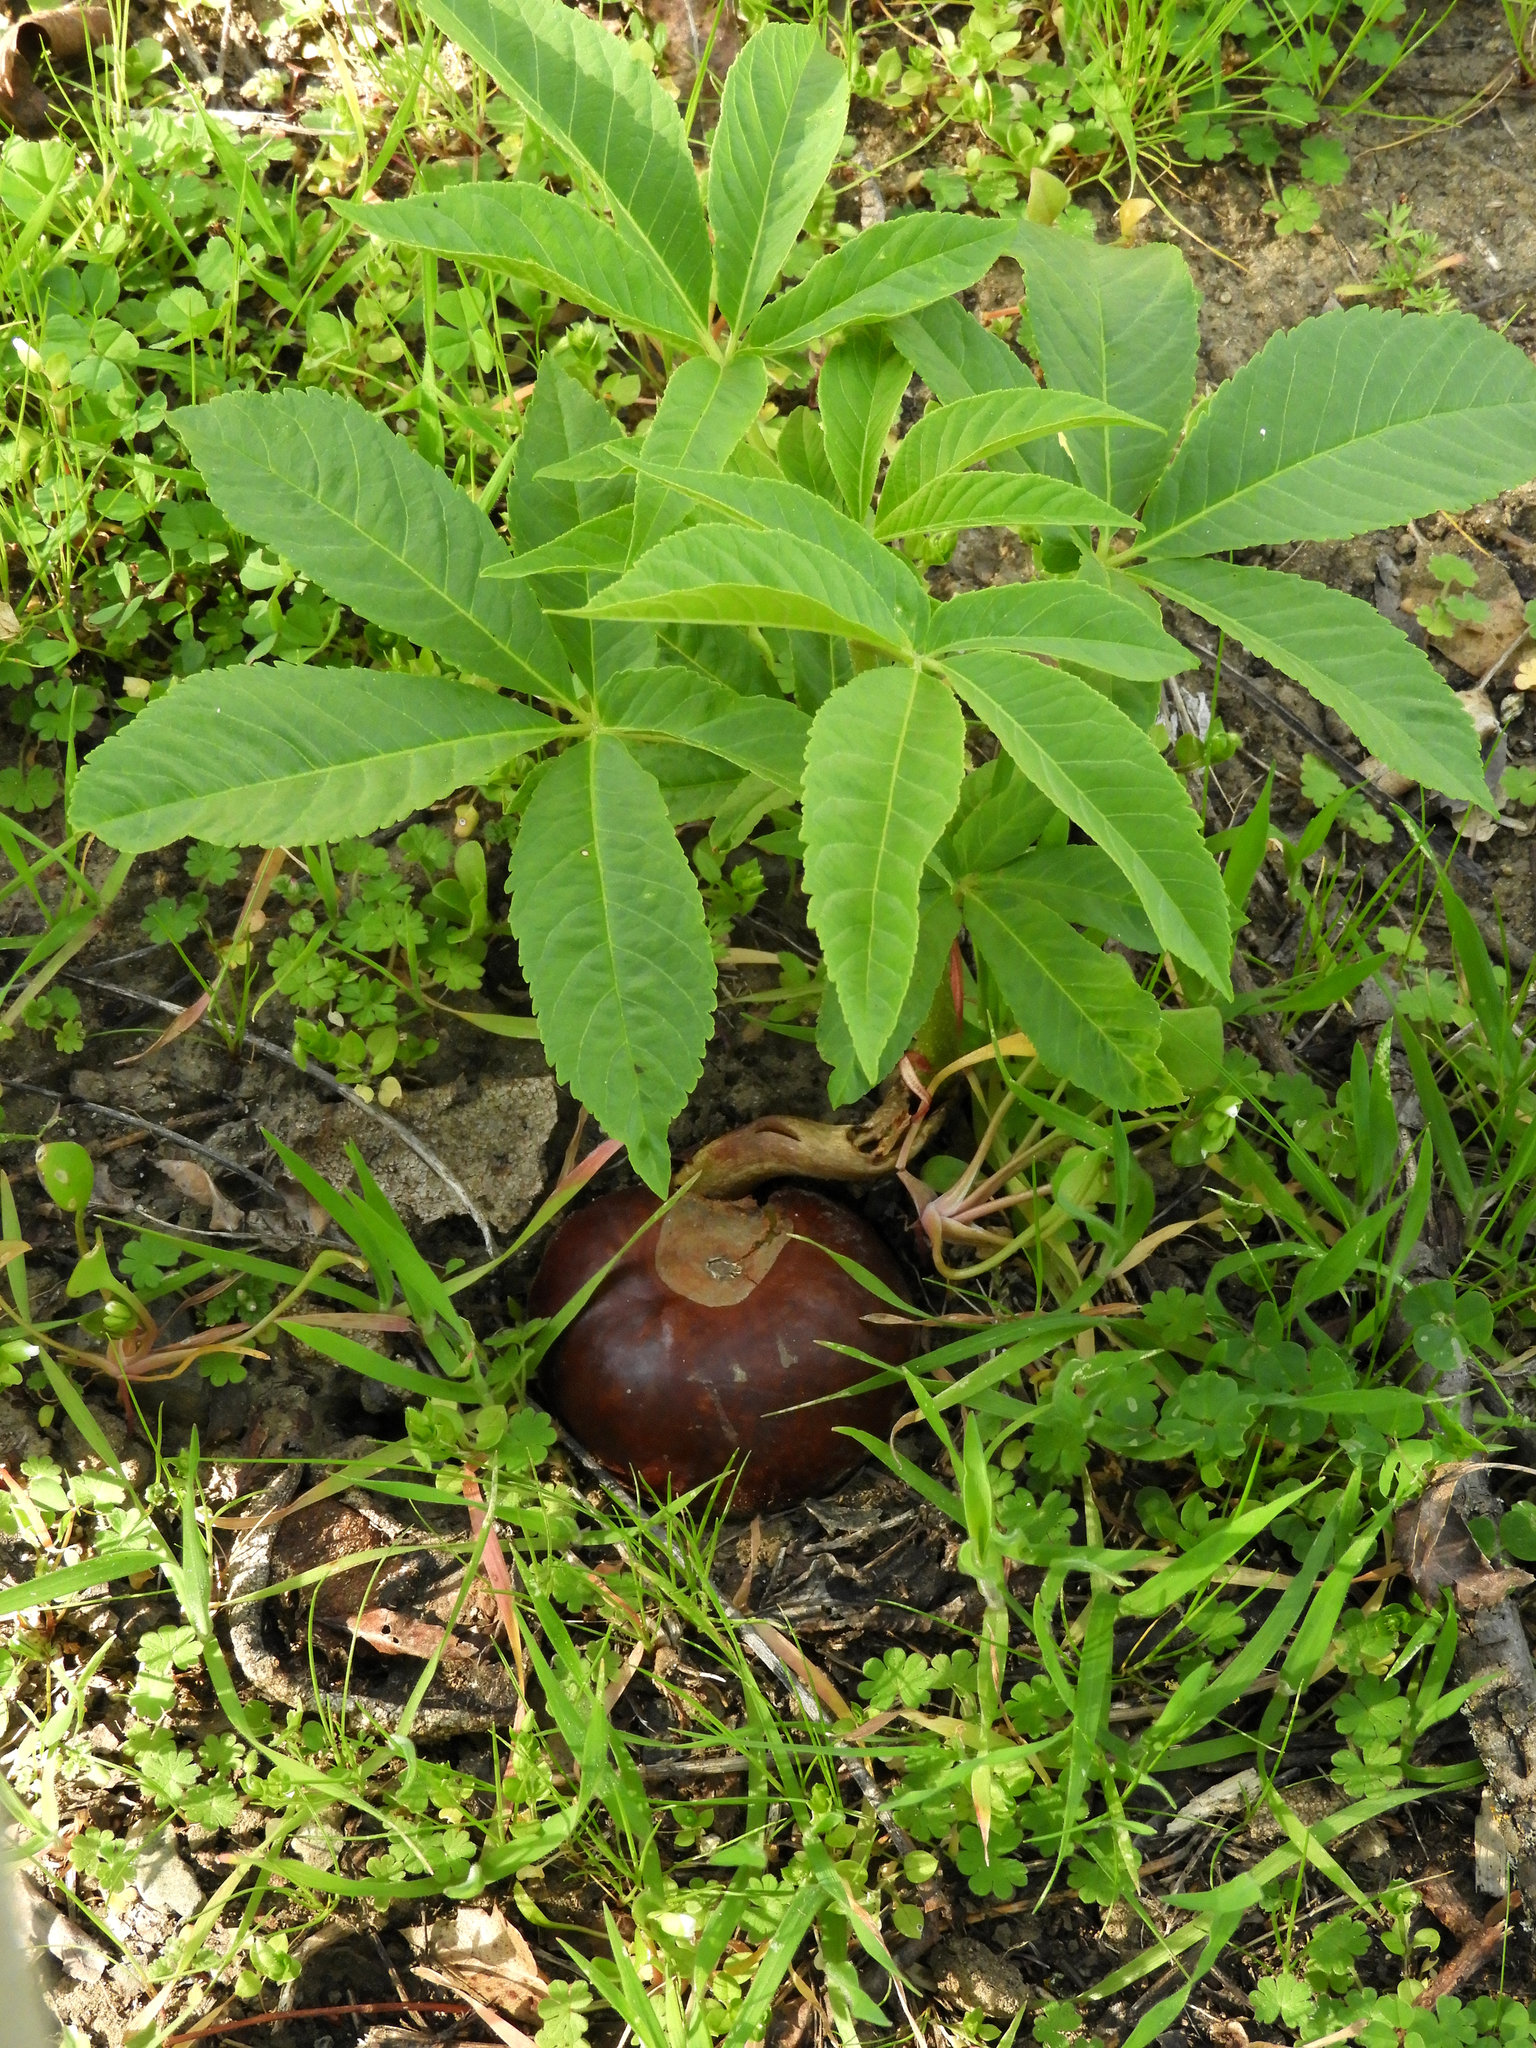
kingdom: Plantae
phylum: Tracheophyta
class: Magnoliopsida
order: Sapindales
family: Sapindaceae
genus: Aesculus
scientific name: Aesculus californica
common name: California buckeye
